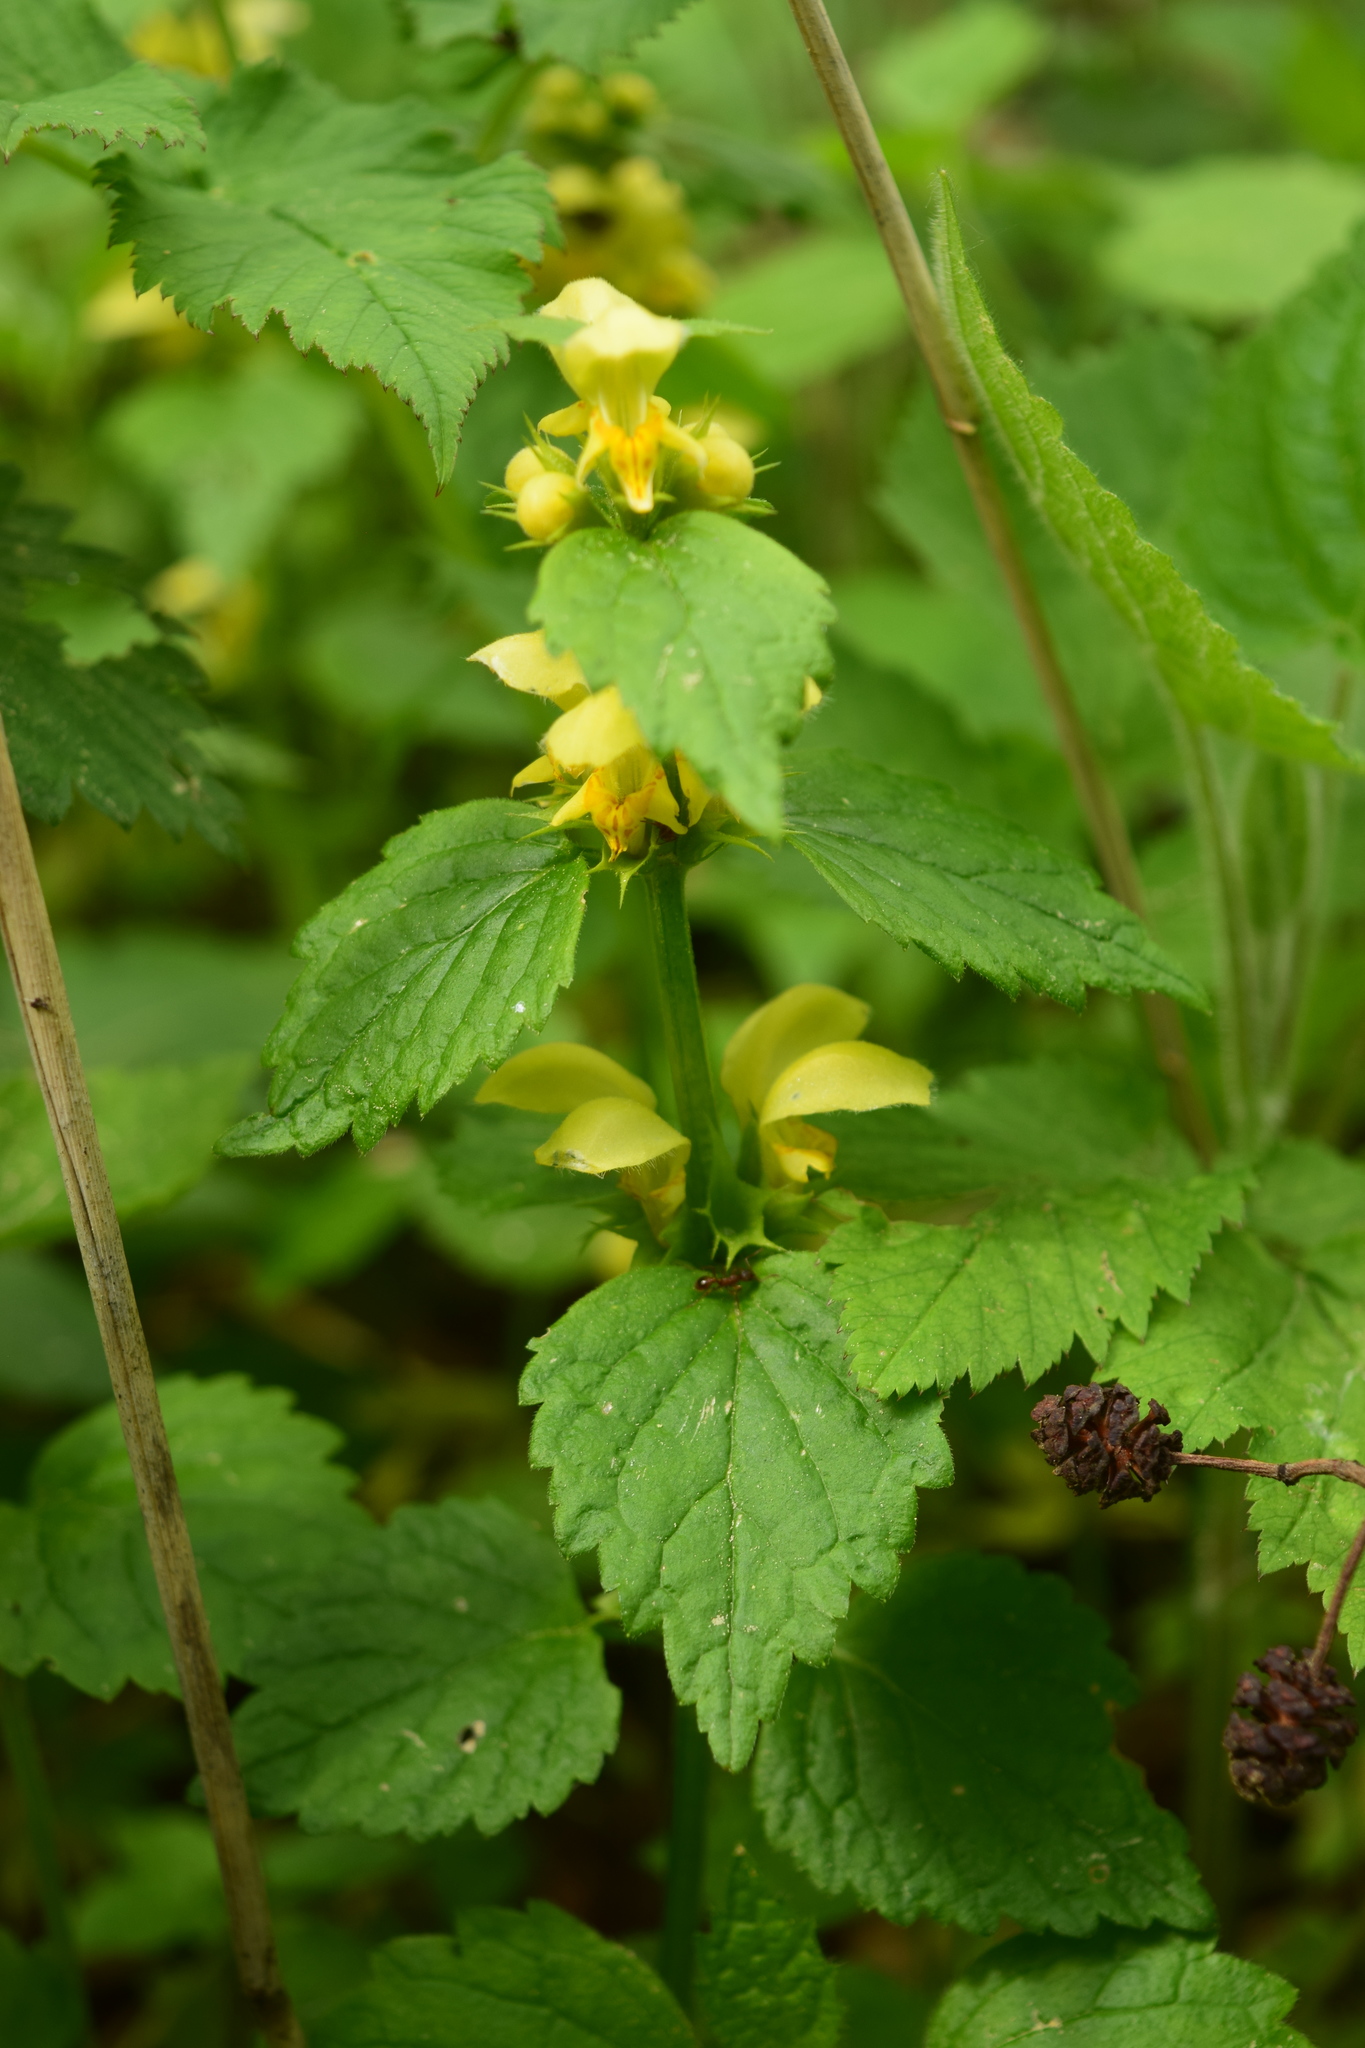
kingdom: Plantae
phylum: Tracheophyta
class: Magnoliopsida
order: Lamiales
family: Lamiaceae
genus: Lamium
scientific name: Lamium galeobdolon
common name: Yellow archangel
